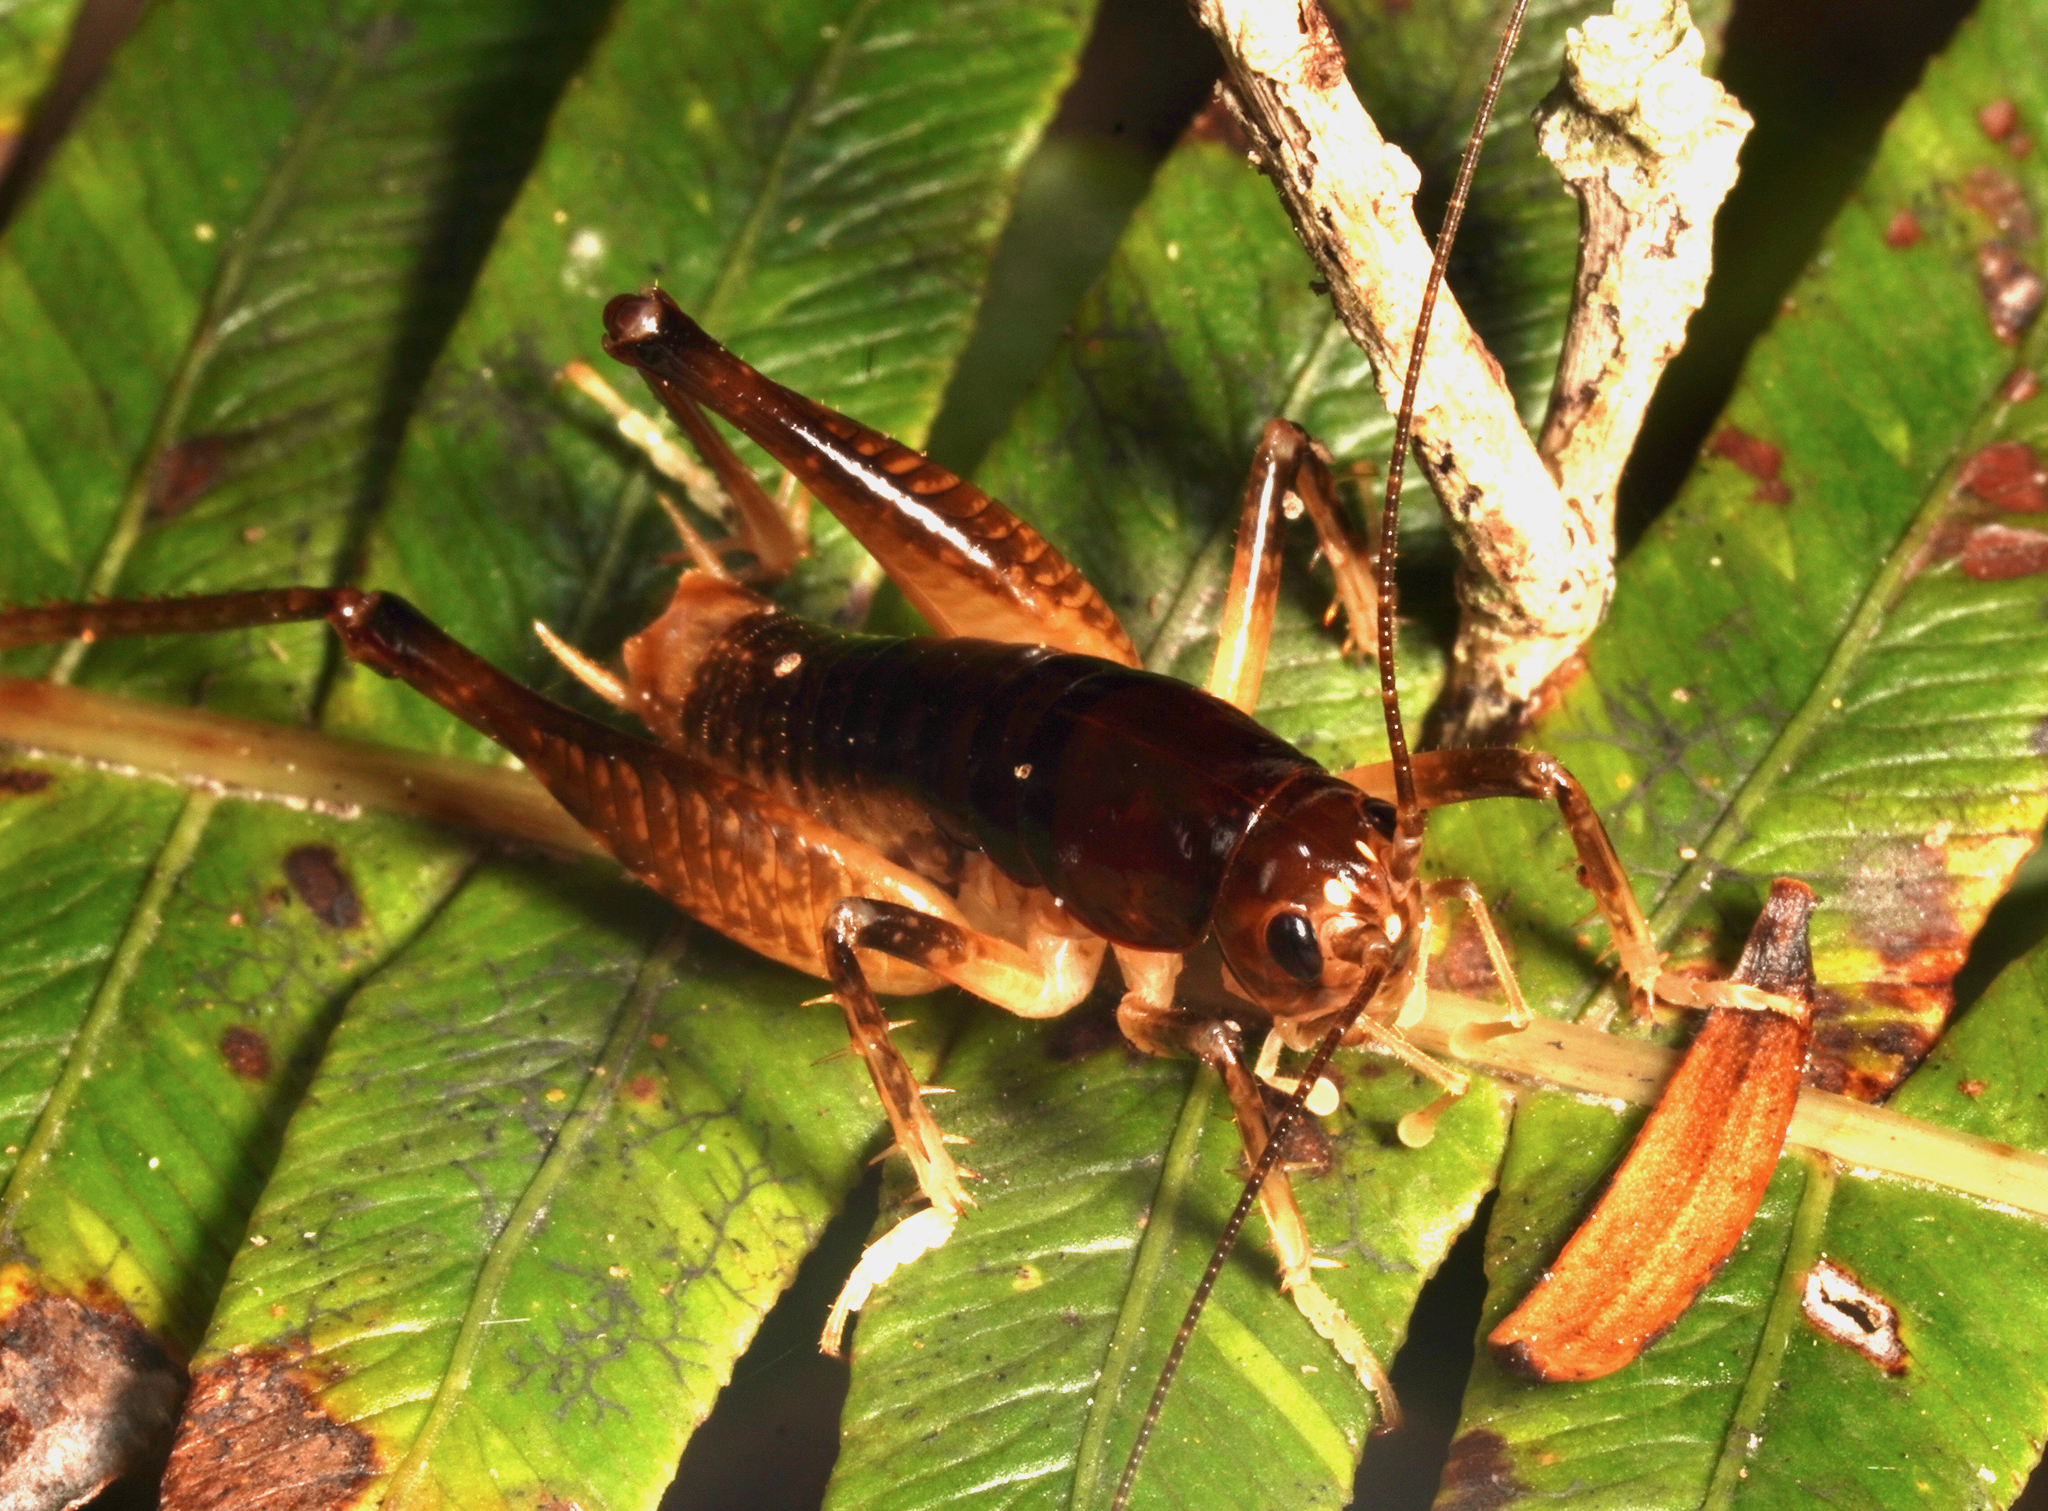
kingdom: Animalia
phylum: Arthropoda
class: Insecta
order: Orthoptera
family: Anostostomatidae
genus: Hemiandrus
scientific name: Hemiandrus brucei
